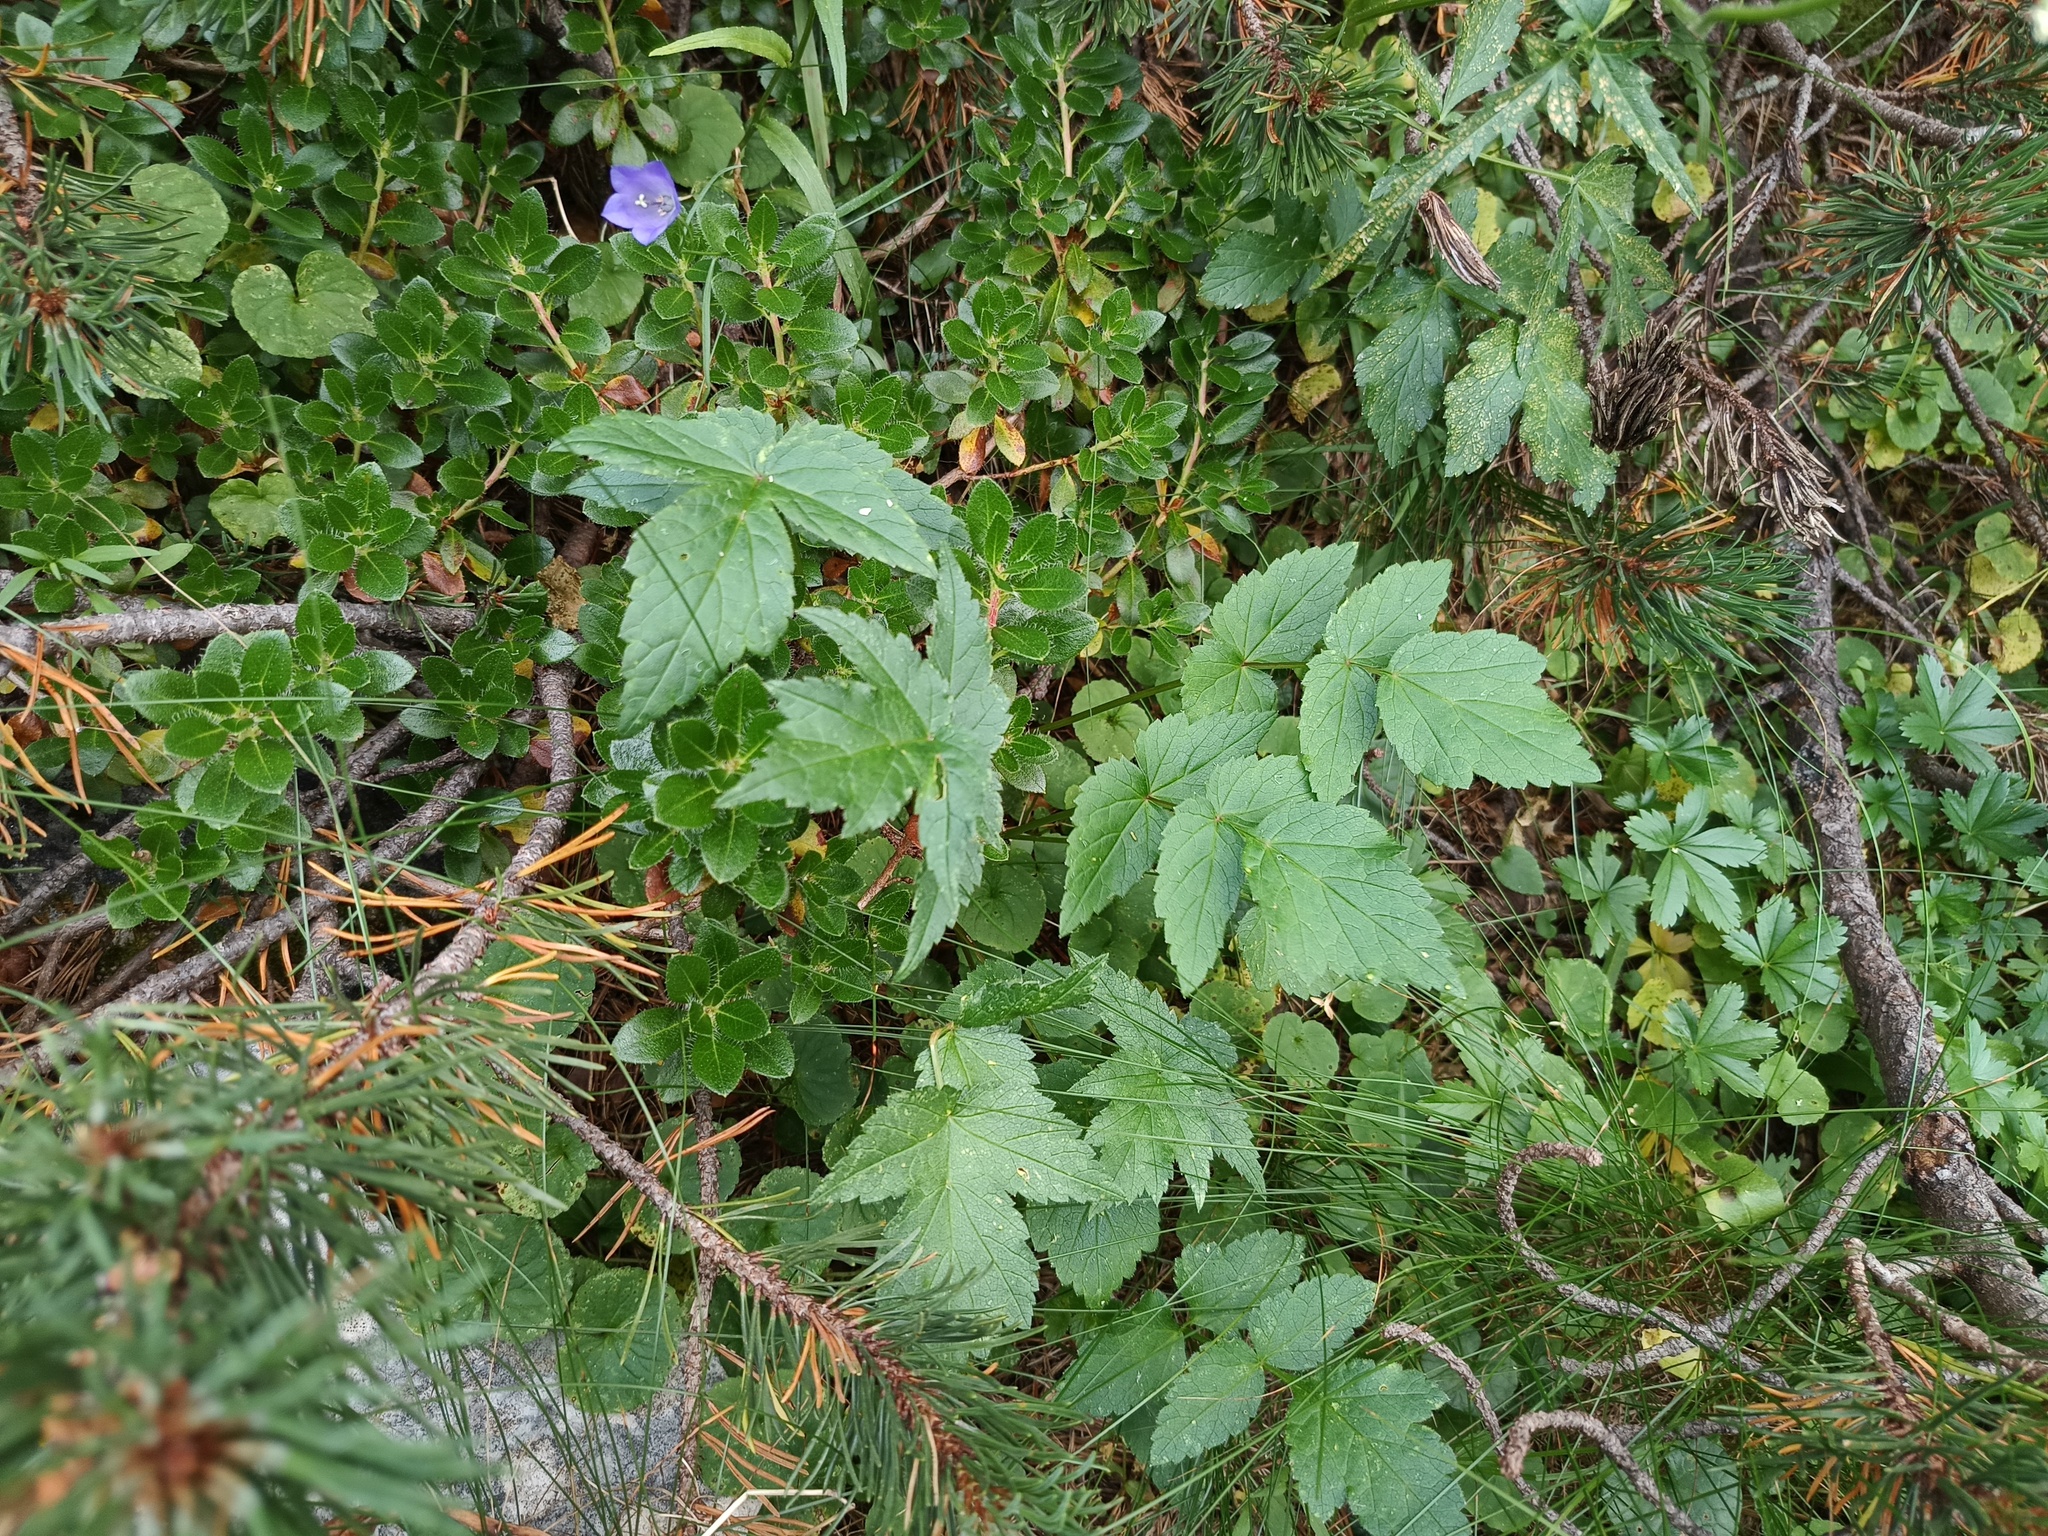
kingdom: Plantae
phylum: Tracheophyta
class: Magnoliopsida
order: Apiales
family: Apiaceae
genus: Heracleum
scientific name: Heracleum austriacum
